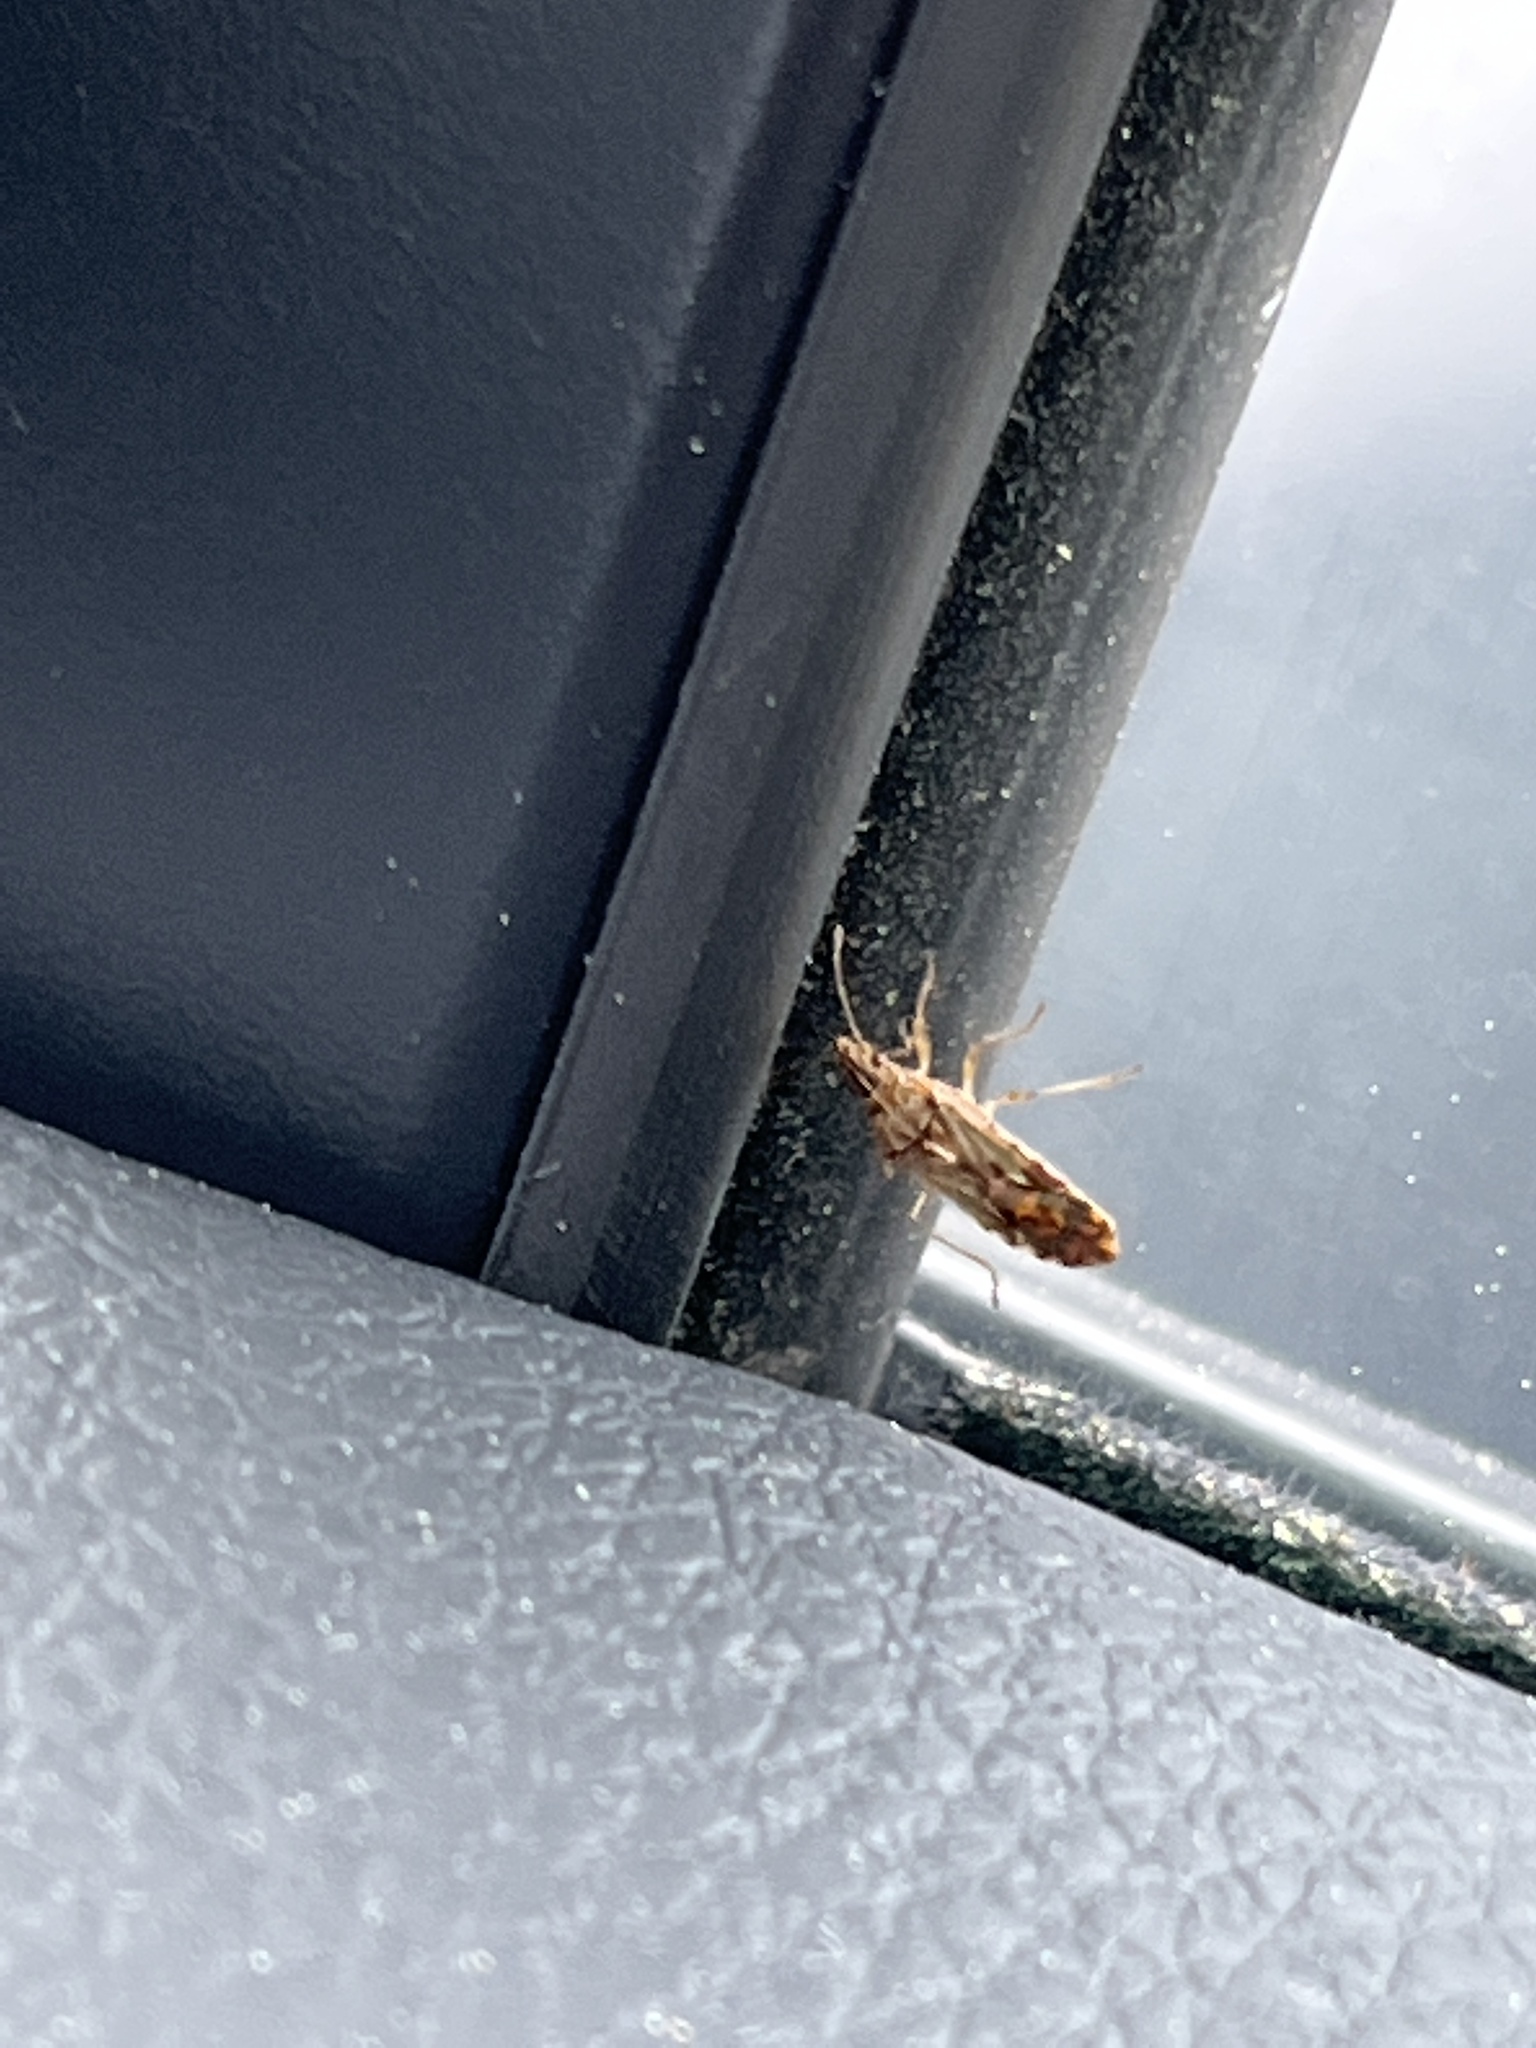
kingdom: Animalia
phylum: Arthropoda
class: Insecta
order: Hemiptera
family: Lygaeidae
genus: Belonochilus
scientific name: Belonochilus numenius
